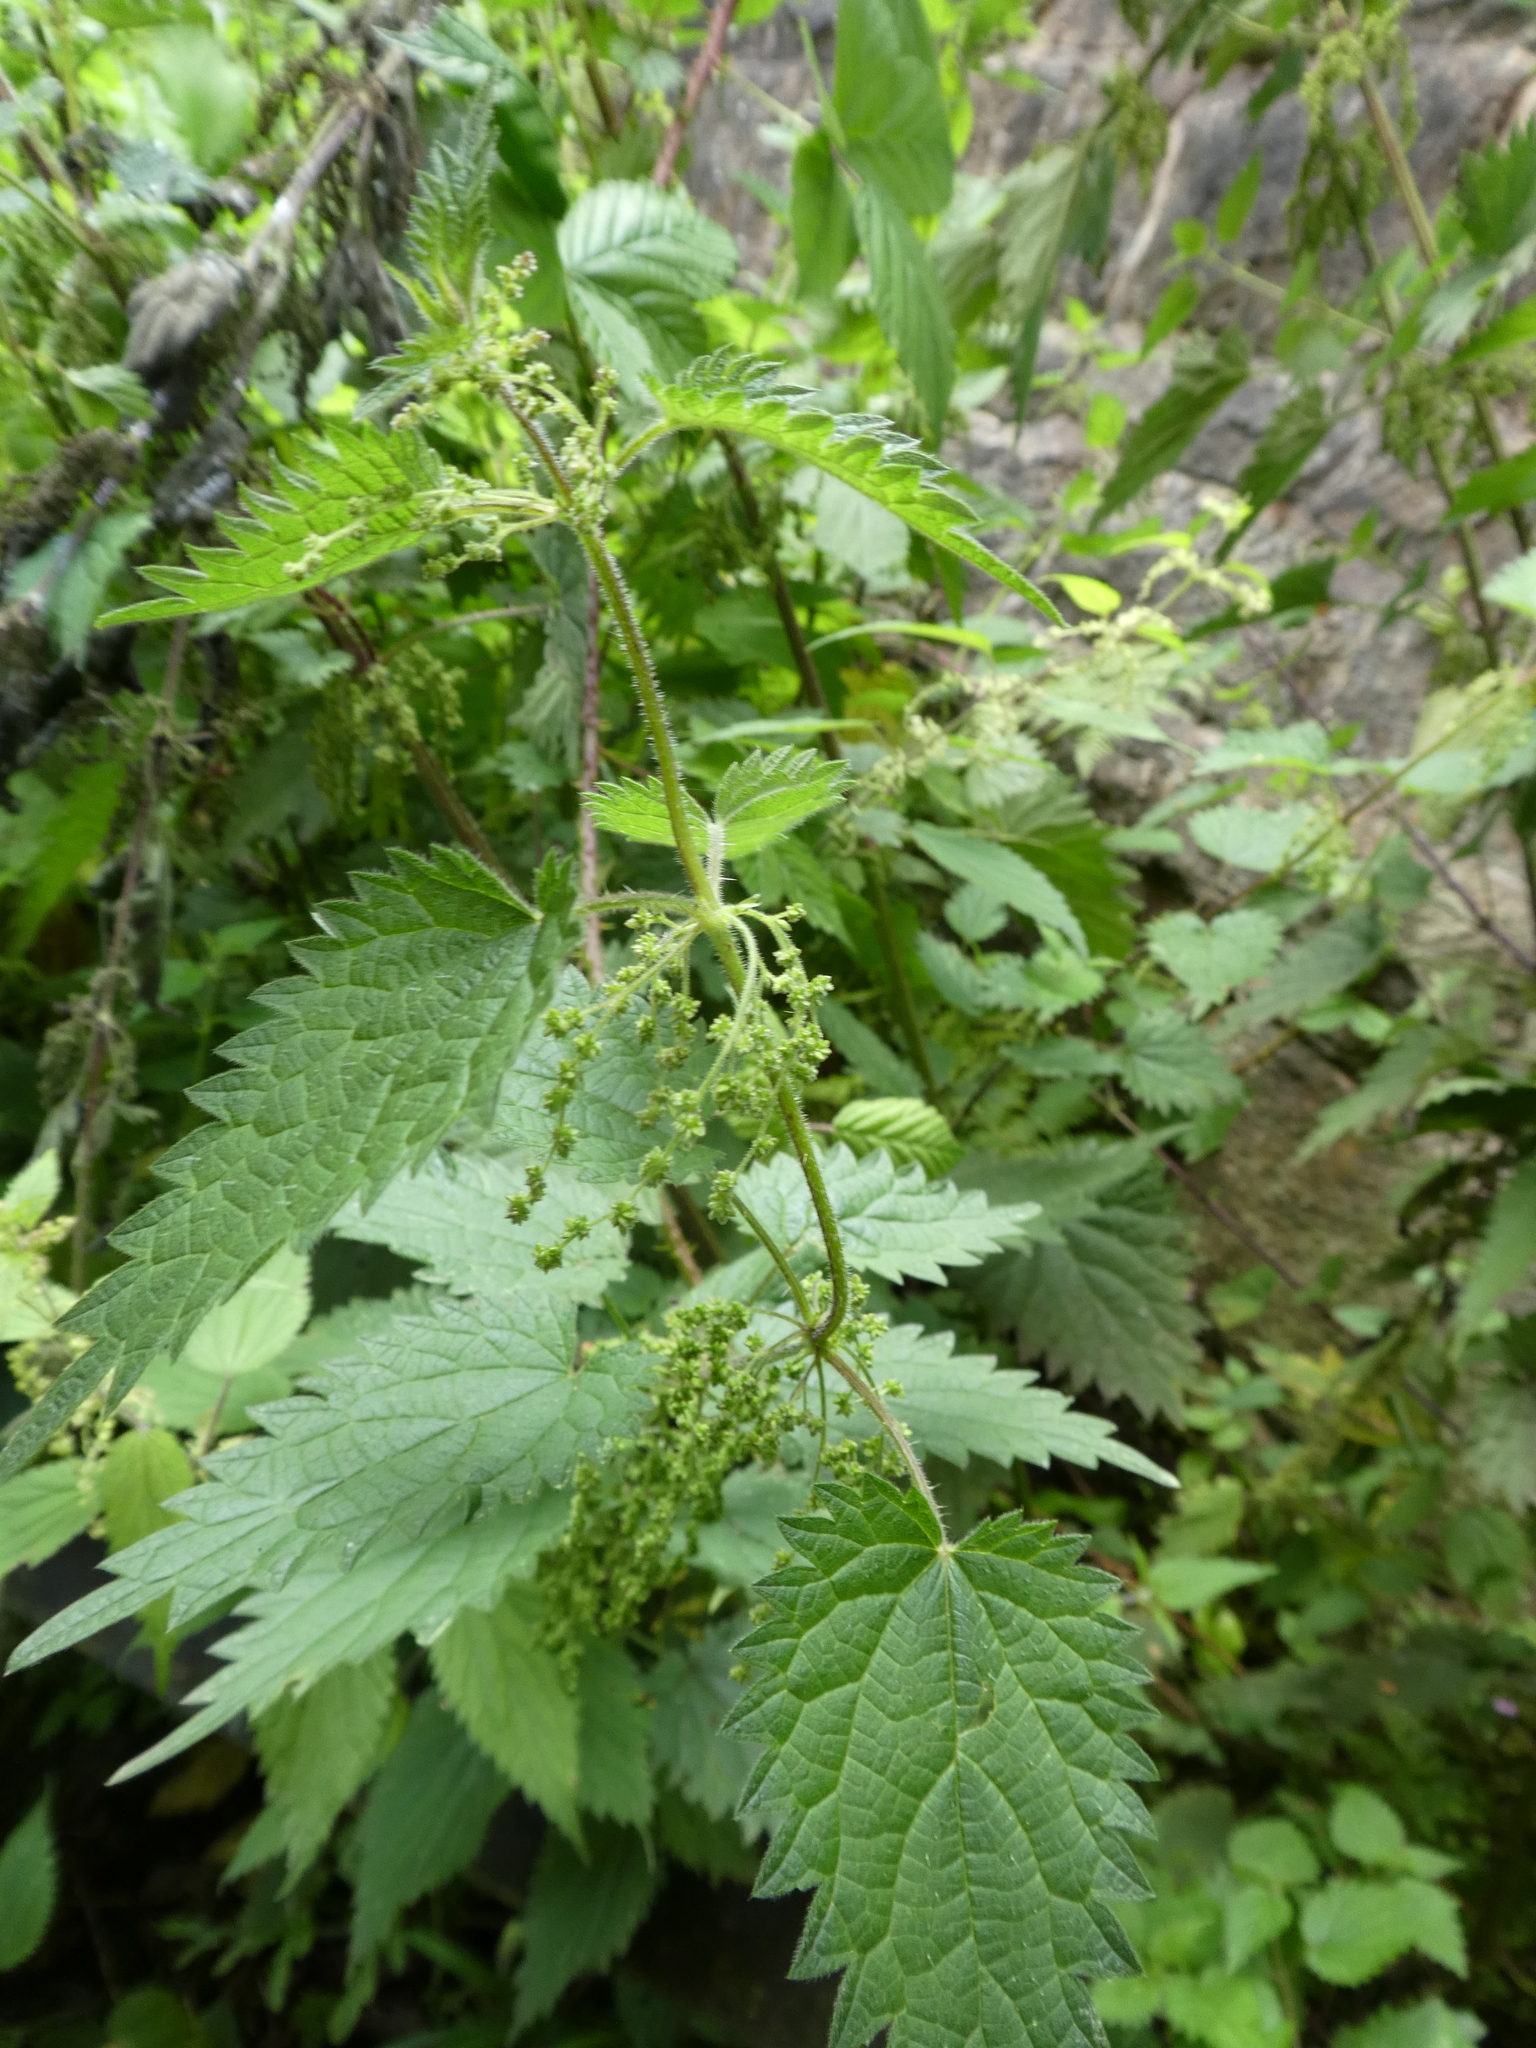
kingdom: Plantae
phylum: Tracheophyta
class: Magnoliopsida
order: Rosales
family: Urticaceae
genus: Urtica
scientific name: Urtica dioica
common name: Common nettle
